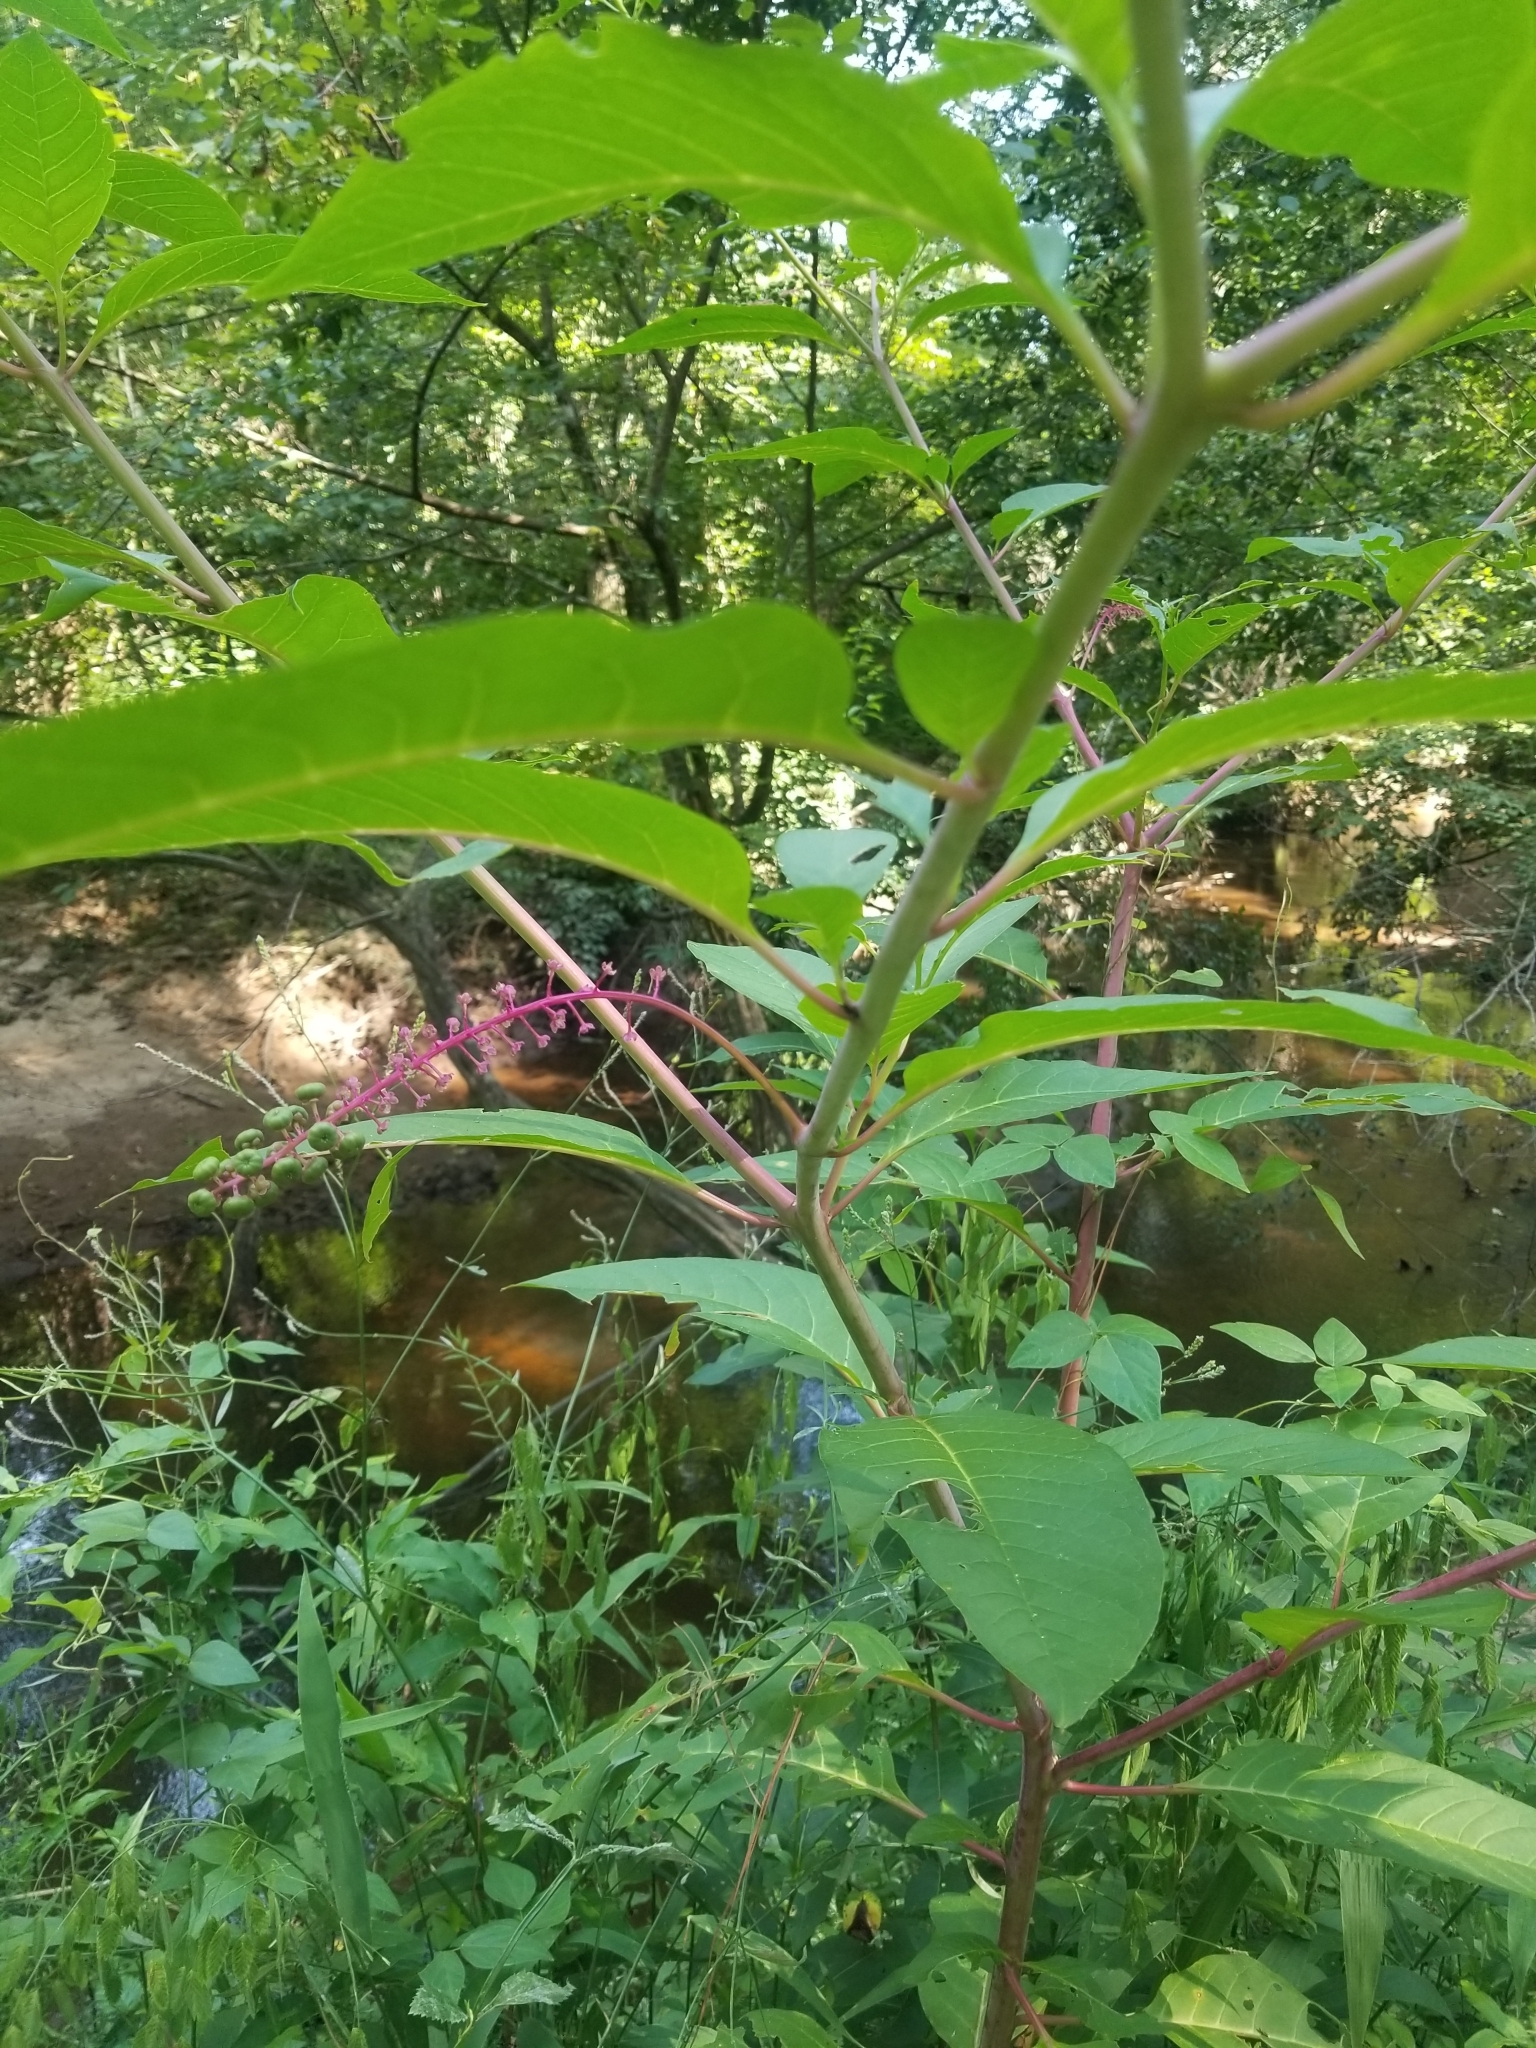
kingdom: Plantae
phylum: Tracheophyta
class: Magnoliopsida
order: Caryophyllales
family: Phytolaccaceae
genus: Phytolacca
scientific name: Phytolacca americana
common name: American pokeweed
